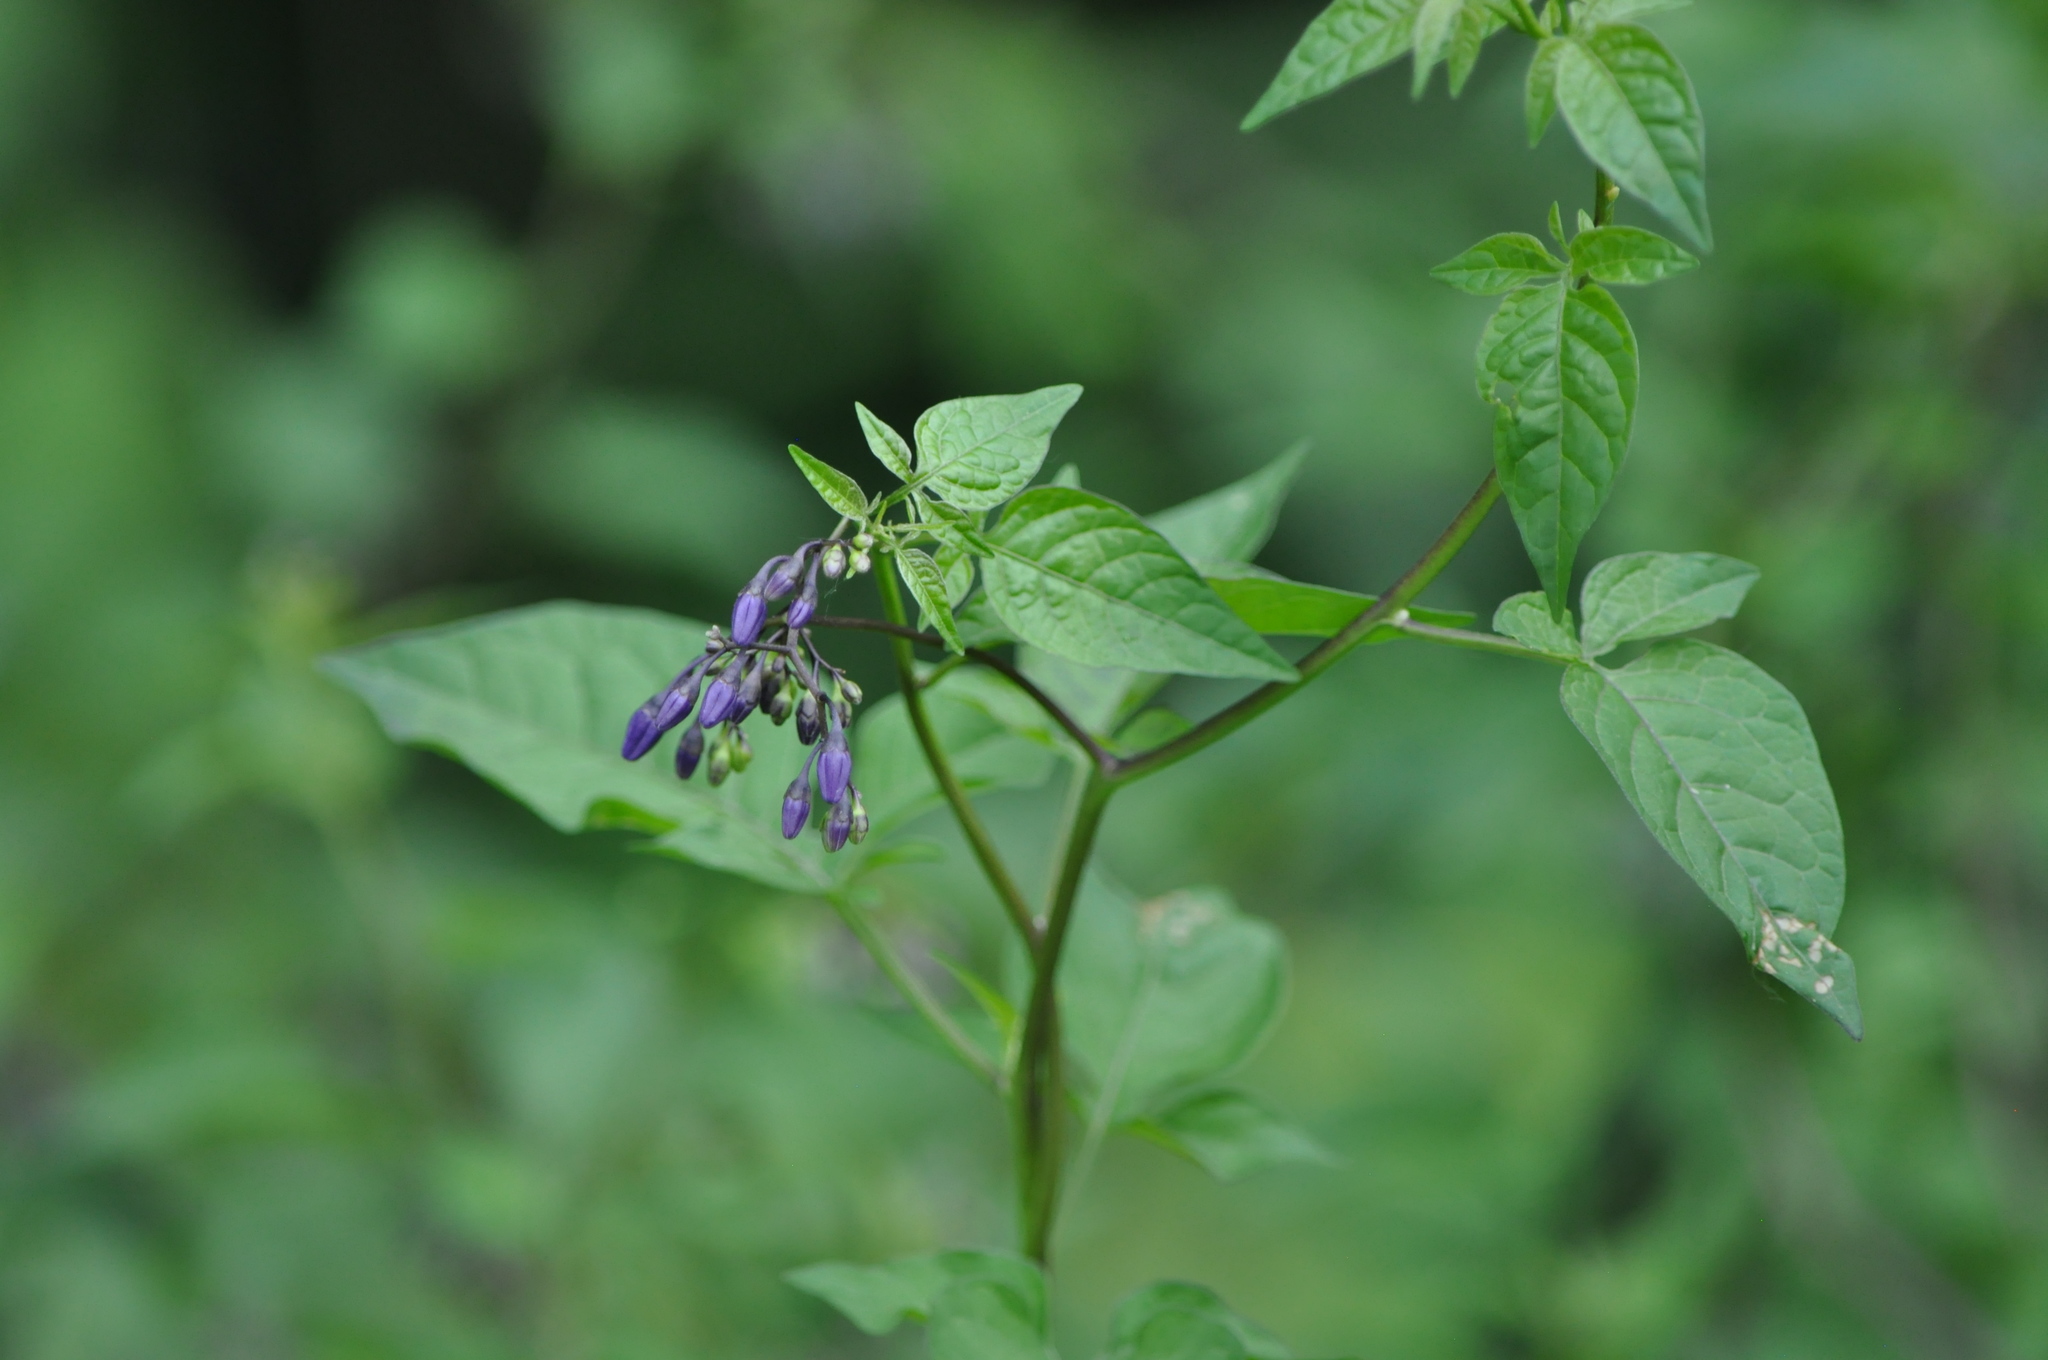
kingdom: Plantae
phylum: Tracheophyta
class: Magnoliopsida
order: Solanales
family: Solanaceae
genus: Solanum
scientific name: Solanum dulcamara
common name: Climbing nightshade
